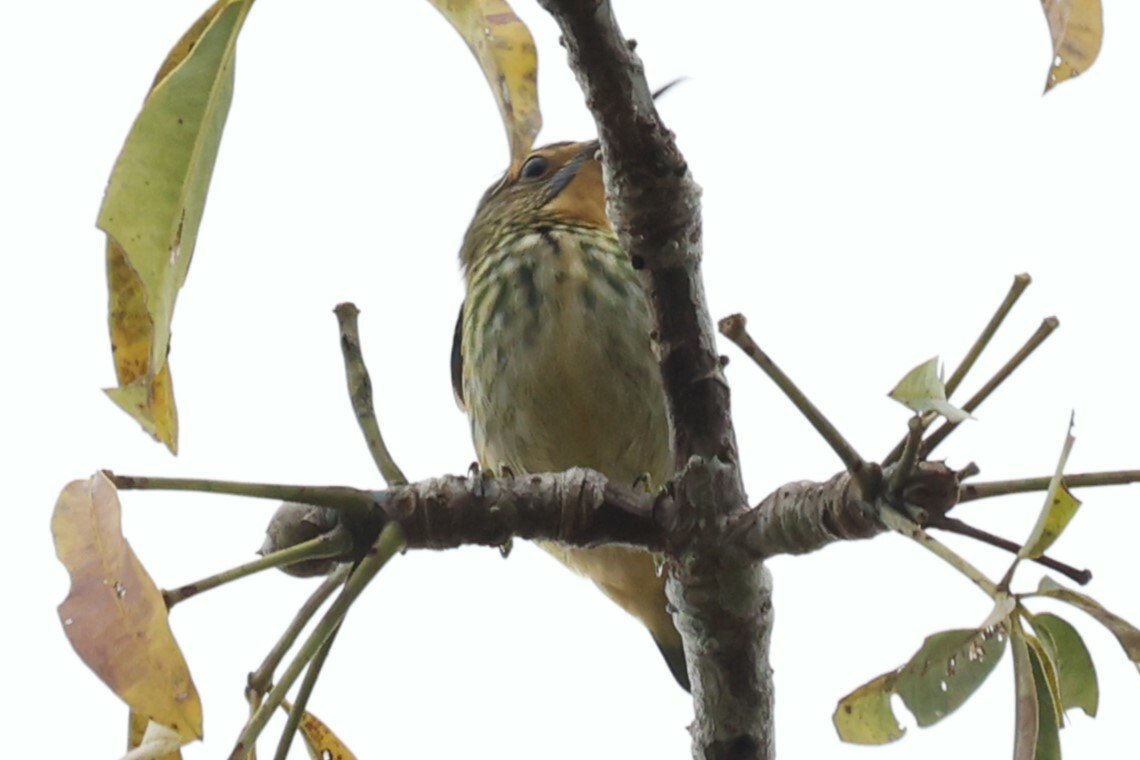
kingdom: Animalia
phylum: Chordata
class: Aves
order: Passeriformes
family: Thraupidae
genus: Cyanerpes
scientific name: Cyanerpes caeruleus
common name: Purple honeycreeper
